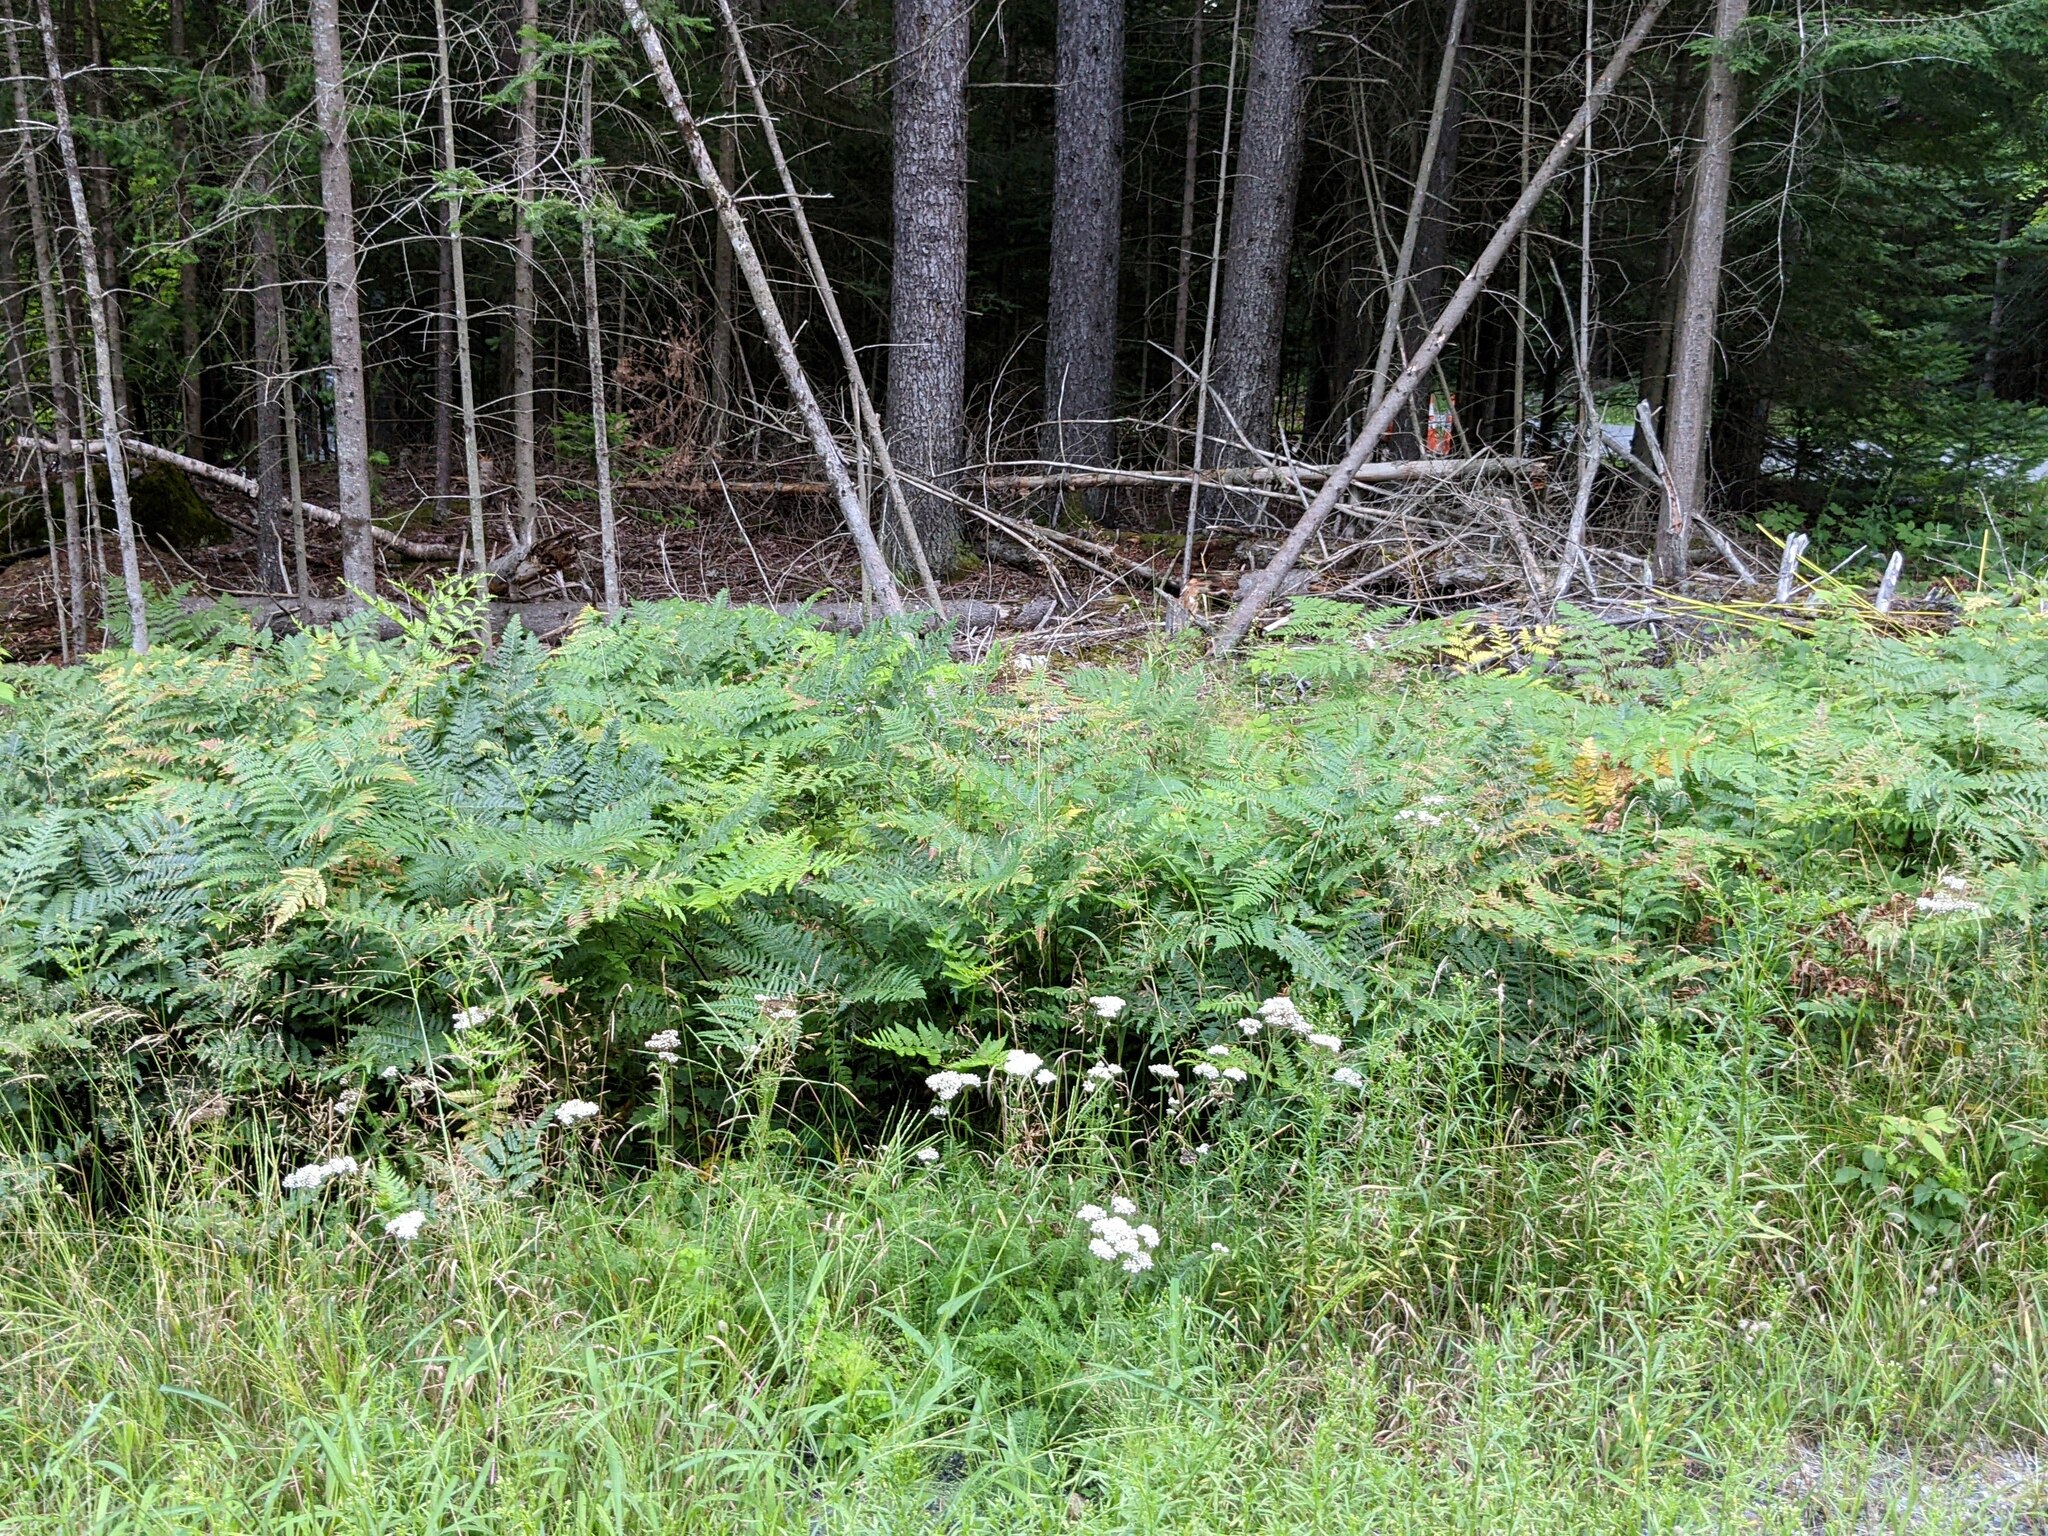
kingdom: Plantae
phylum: Tracheophyta
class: Magnoliopsida
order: Asterales
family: Asteraceae
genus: Achillea
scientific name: Achillea millefolium
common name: Yarrow
